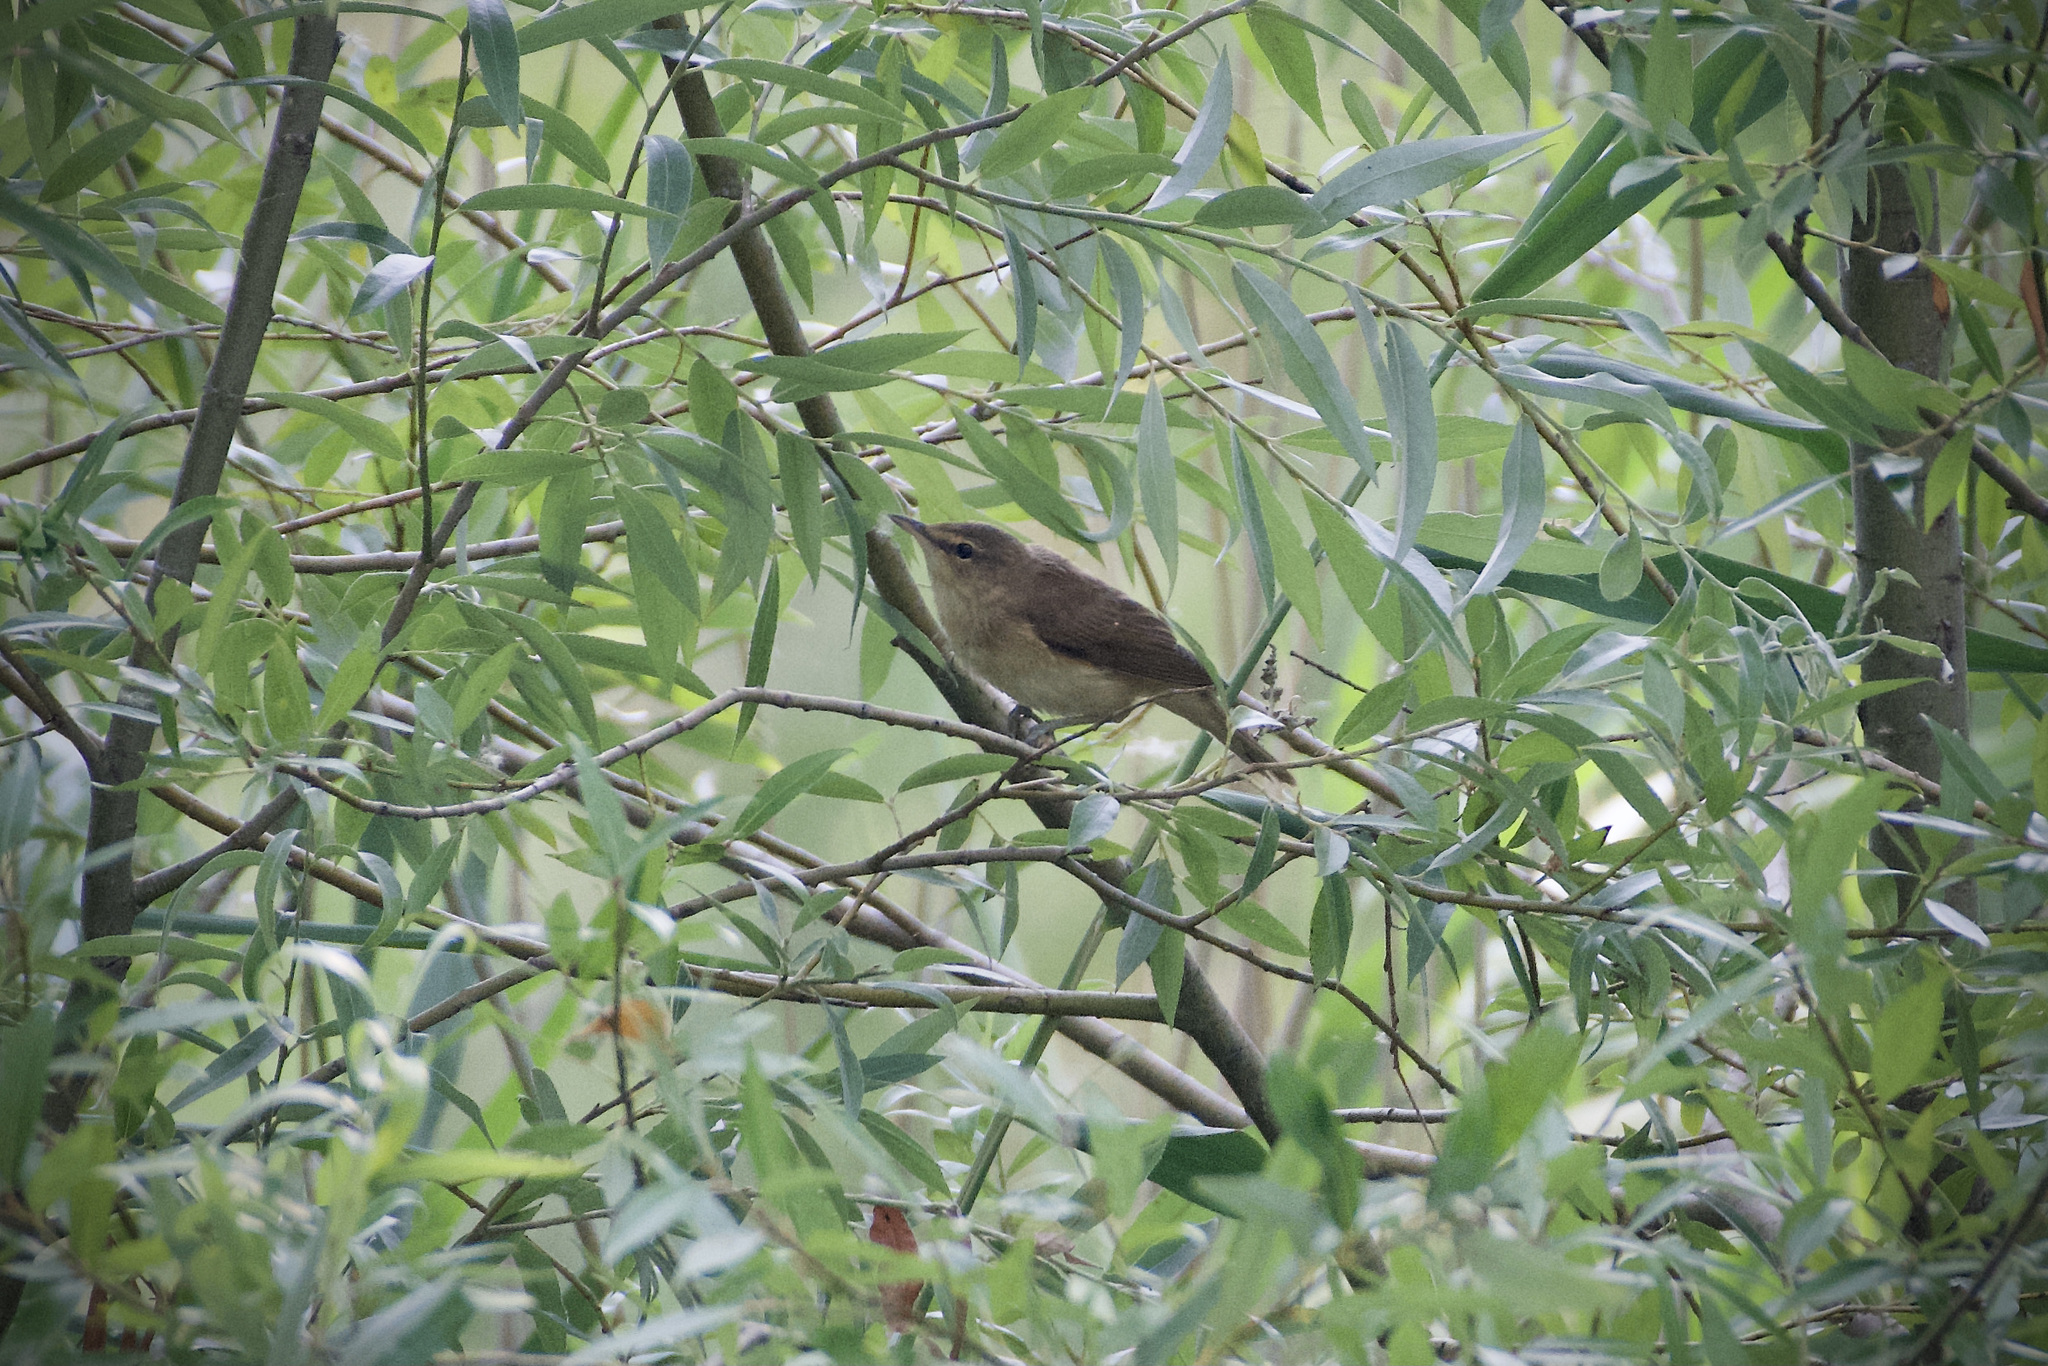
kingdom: Animalia
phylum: Chordata
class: Aves
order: Passeriformes
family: Acrocephalidae
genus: Acrocephalus
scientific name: Acrocephalus arundinaceus
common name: Great reed warbler
